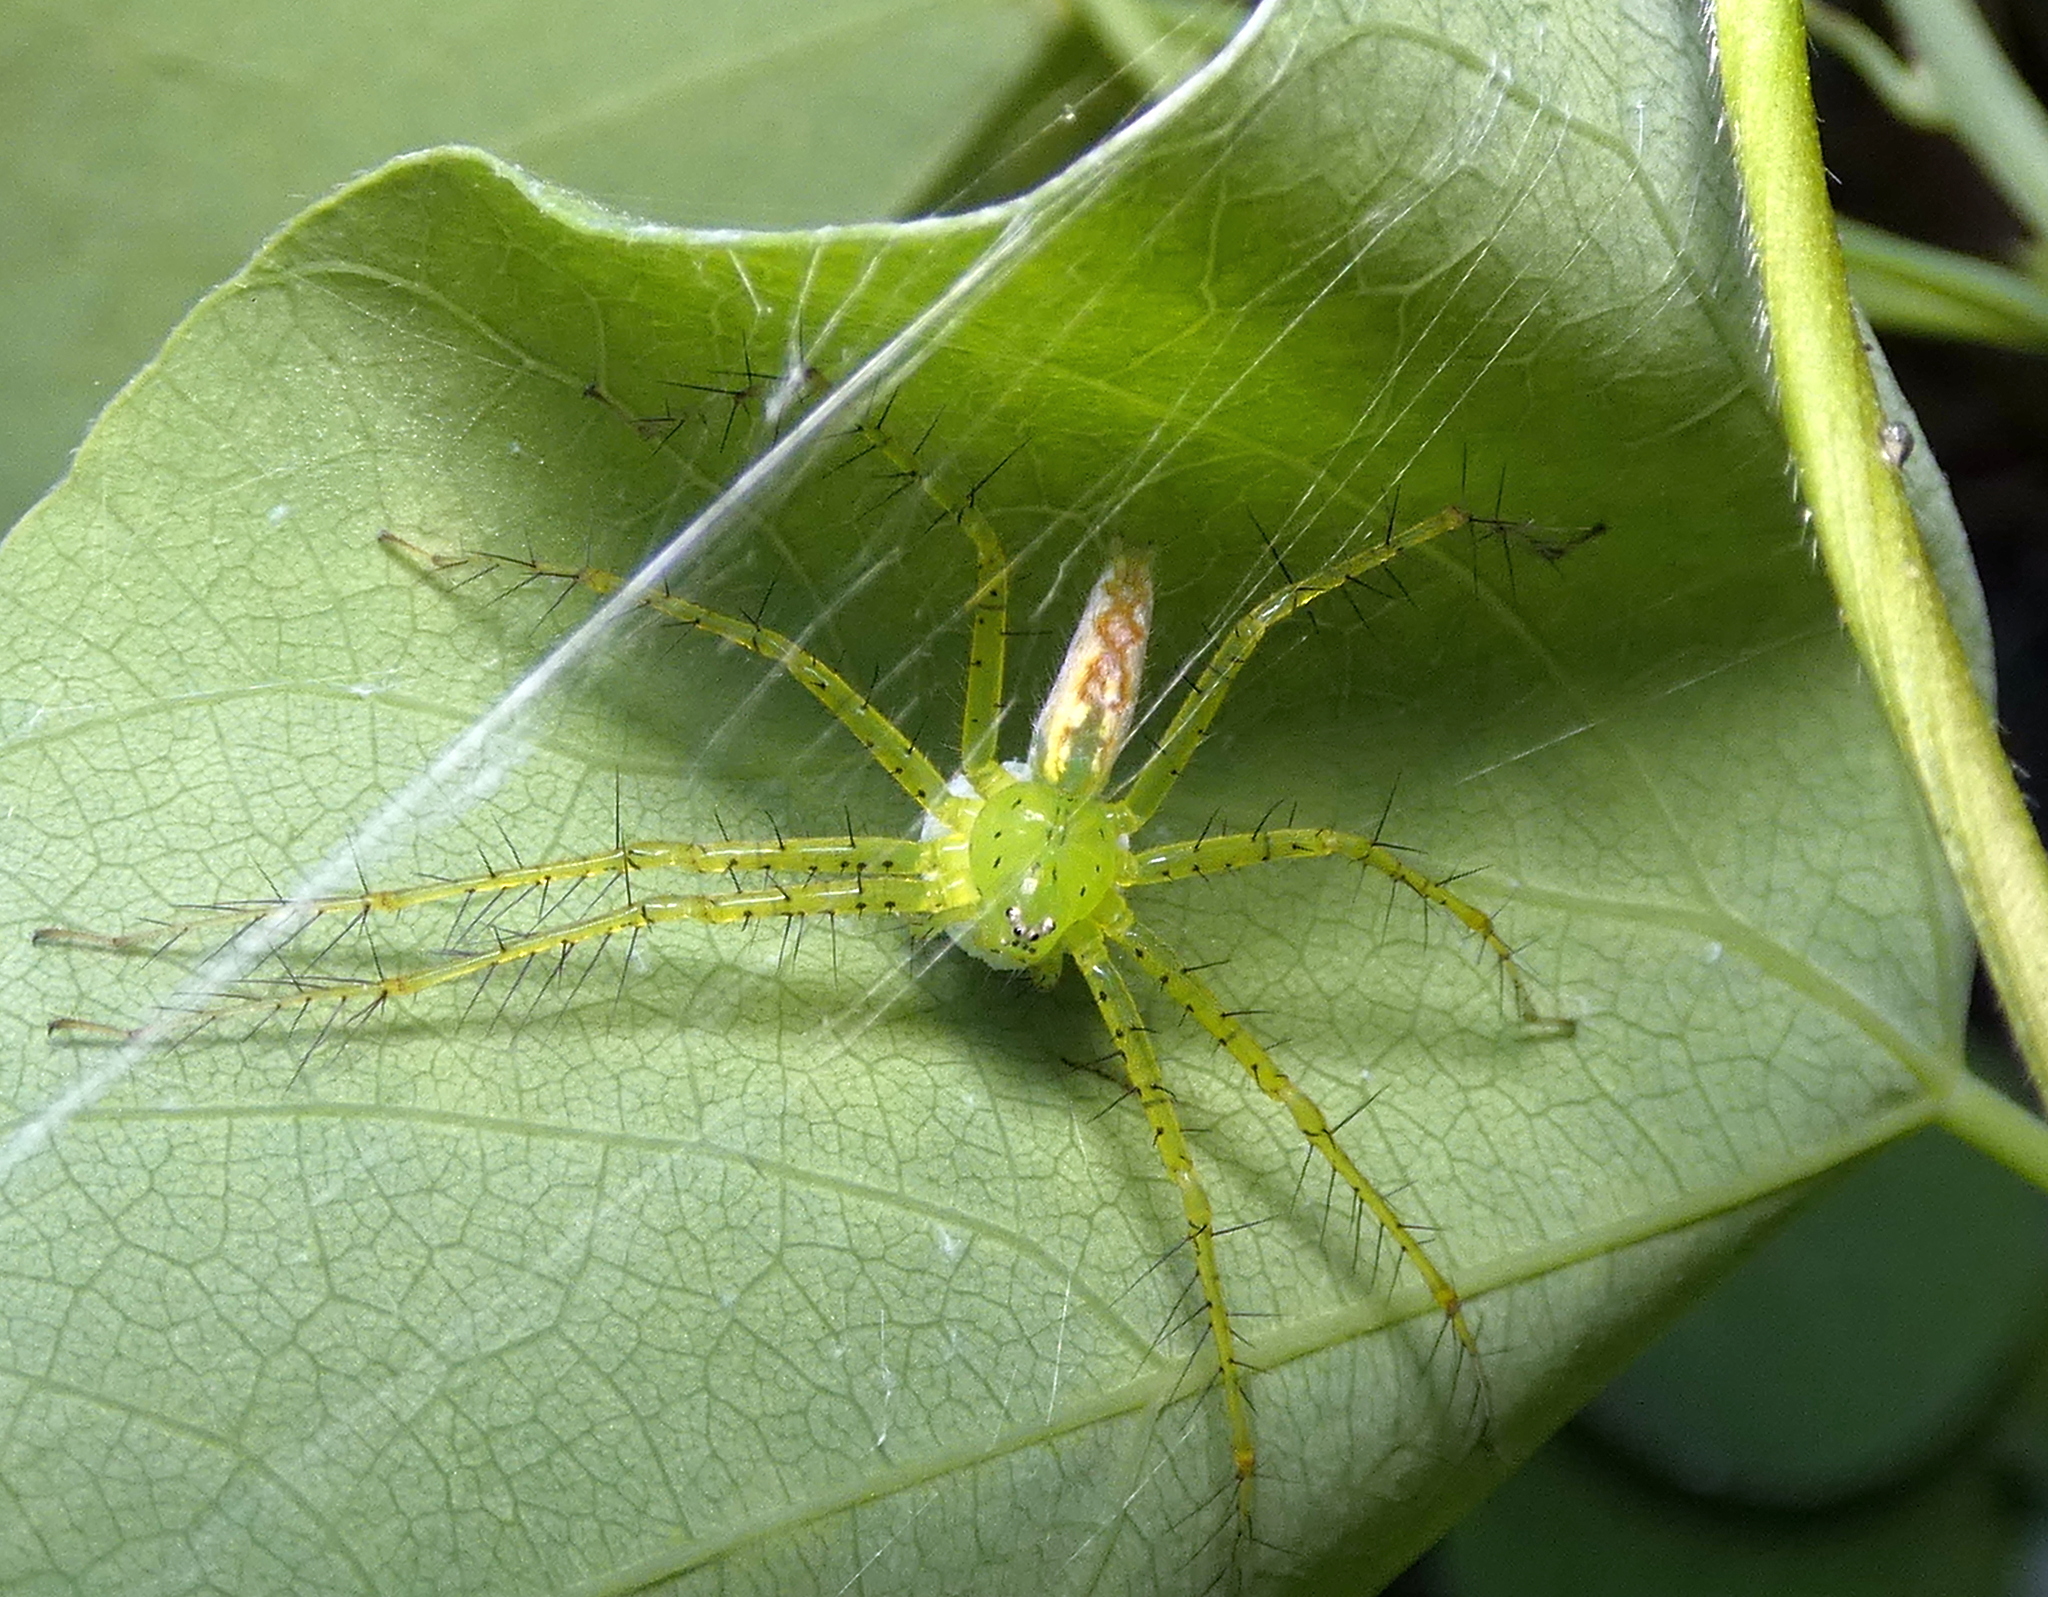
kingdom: Animalia
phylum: Arthropoda
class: Arachnida
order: Araneae
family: Pisauridae
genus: Architis
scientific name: Architis spinipes
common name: Nursery web spiders
